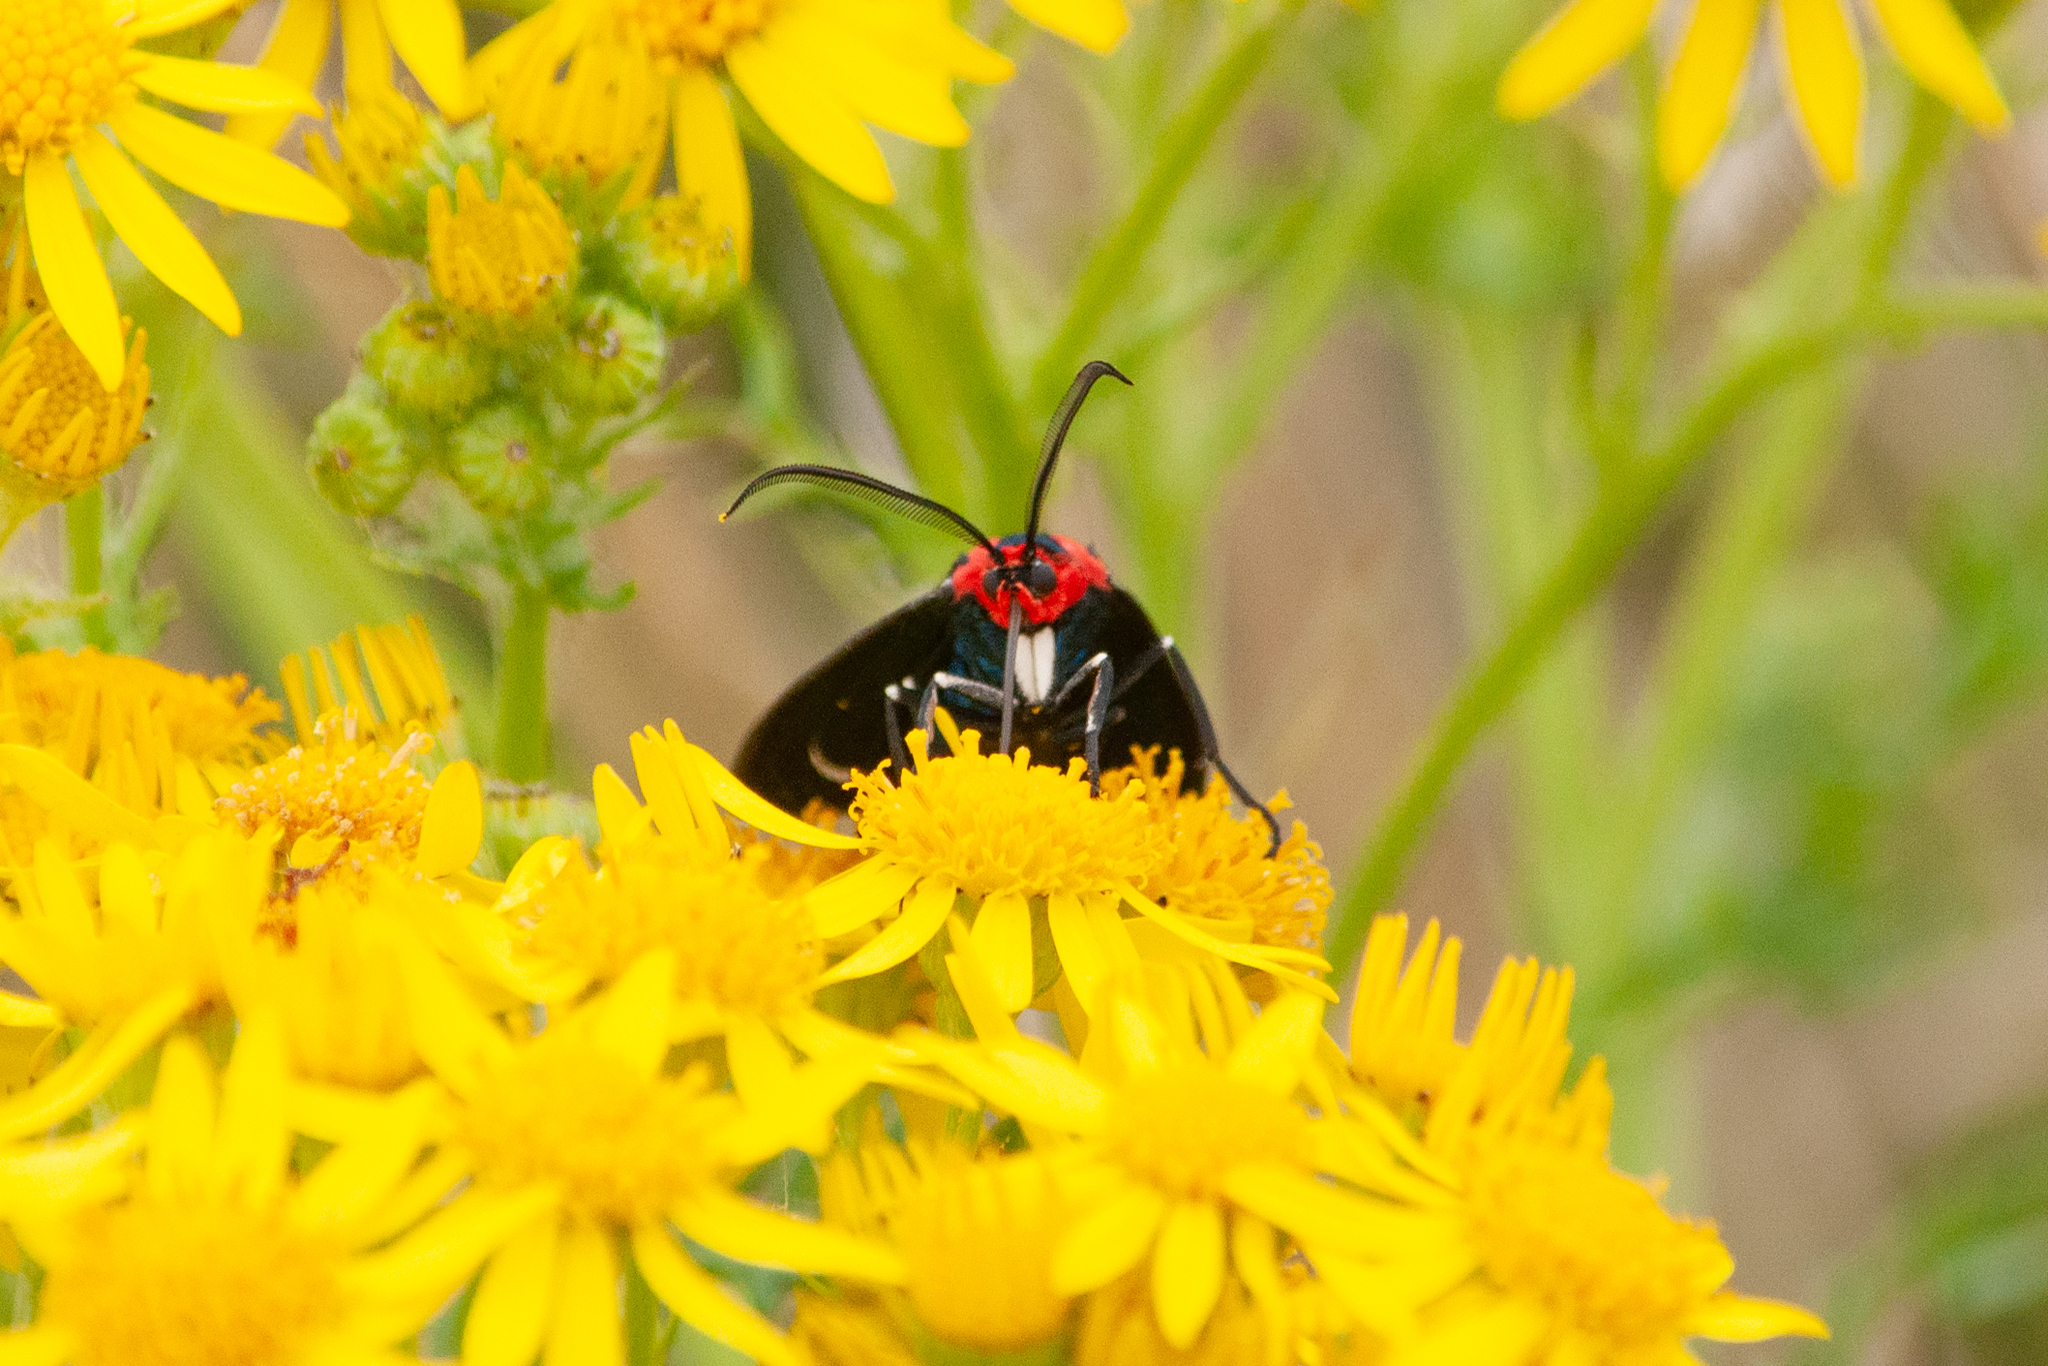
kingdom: Animalia
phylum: Arthropoda
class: Insecta
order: Lepidoptera
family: Erebidae
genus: Ctenucha
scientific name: Ctenucha rubroscapus
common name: Red-shouldered ctenucha
